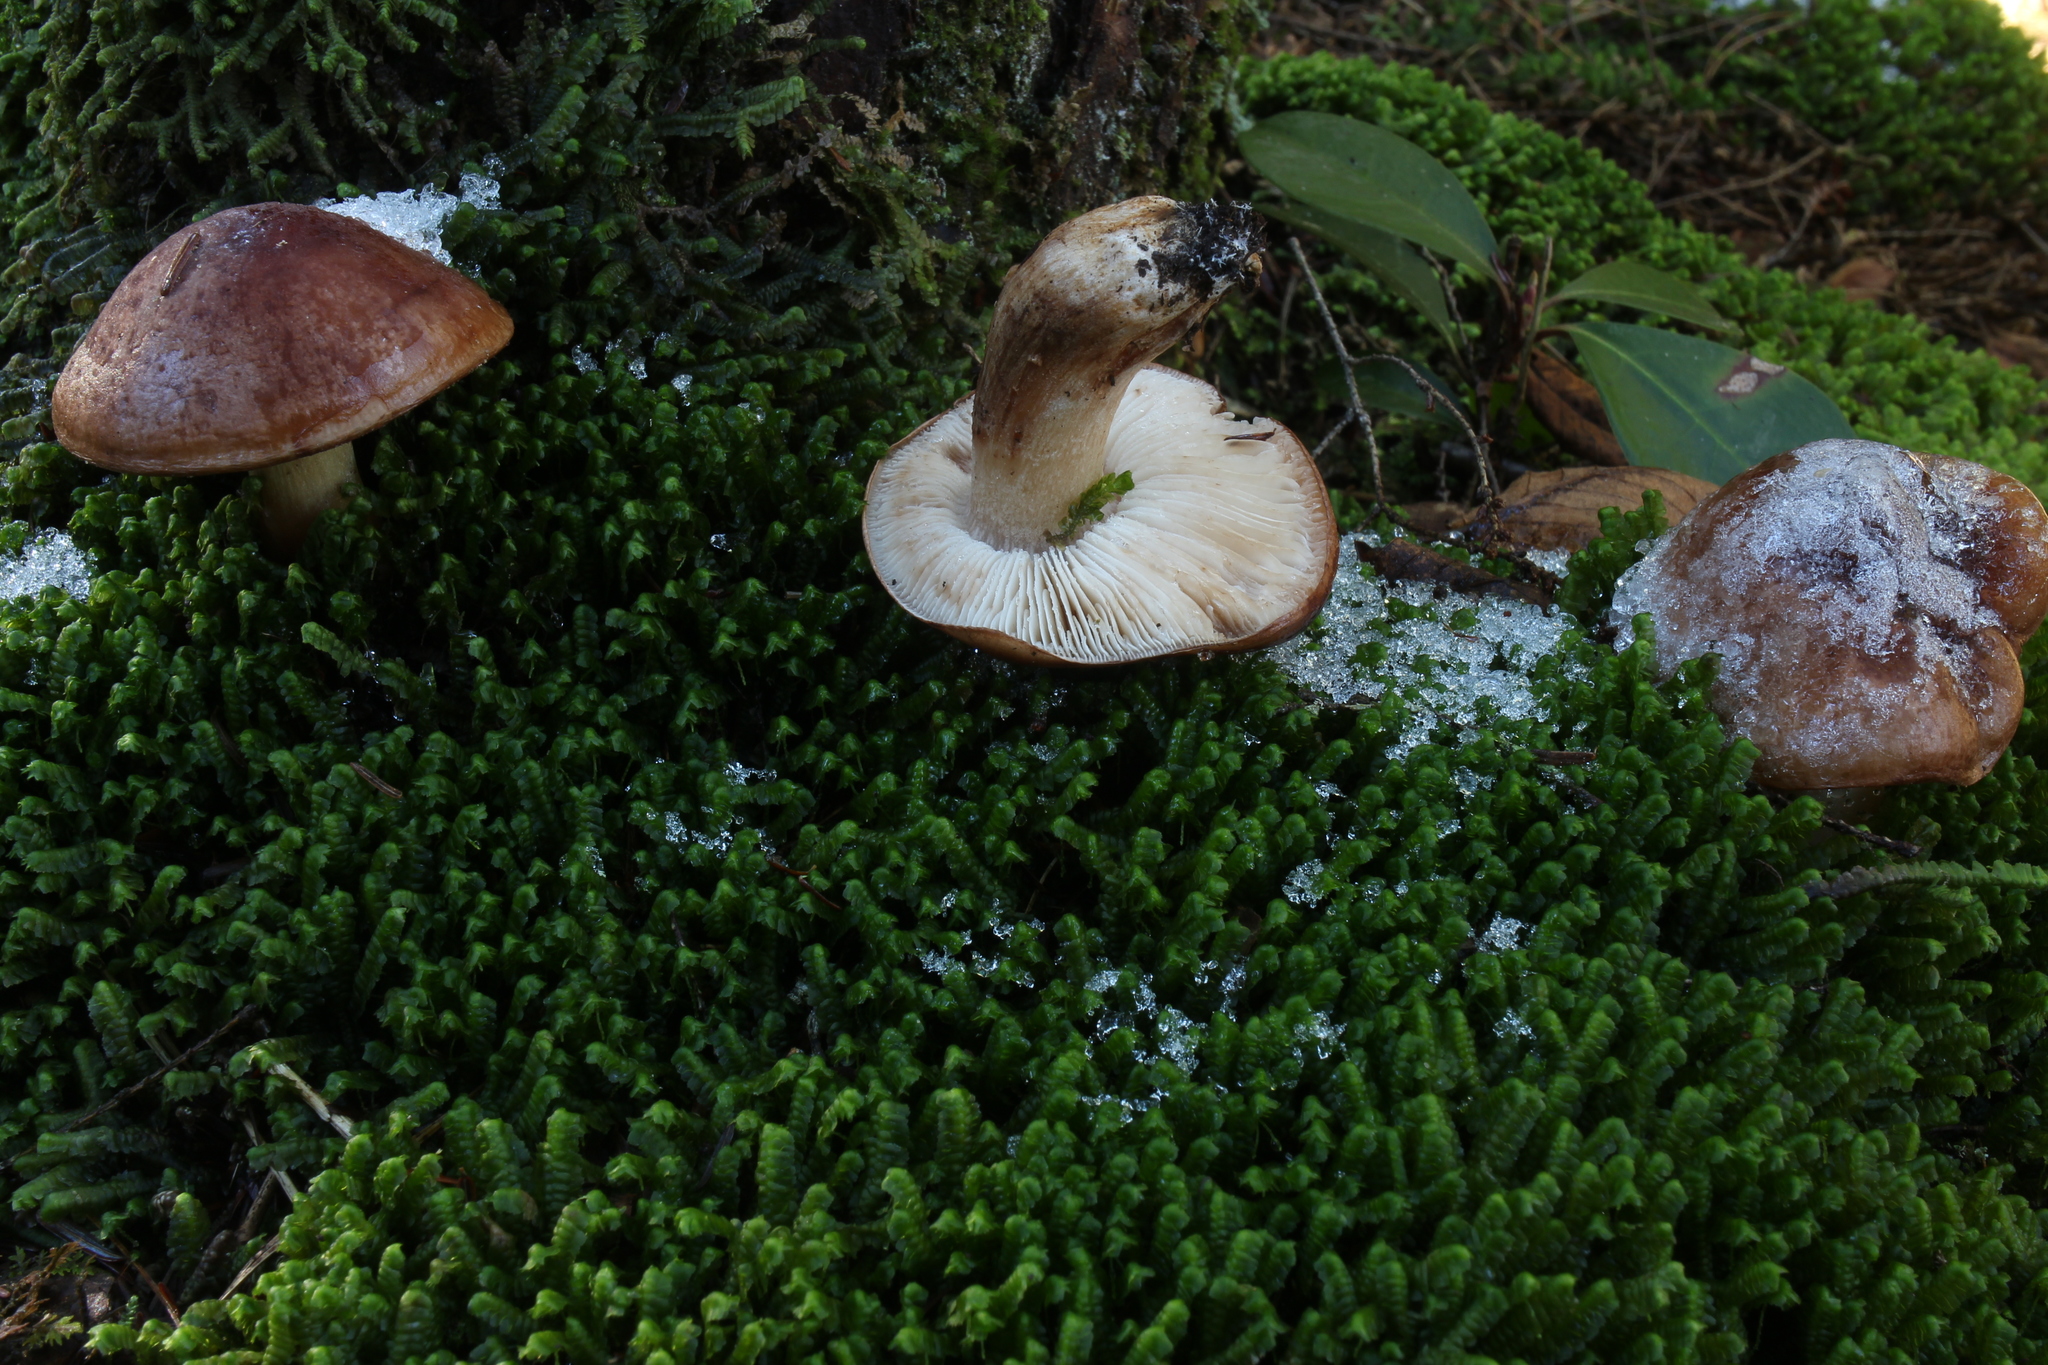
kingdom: Fungi
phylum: Basidiomycota
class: Agaricomycetes
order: Agaricales
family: Tricholomataceae
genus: Tricholoma
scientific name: Tricholoma pessundatum
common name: Tacked knight
